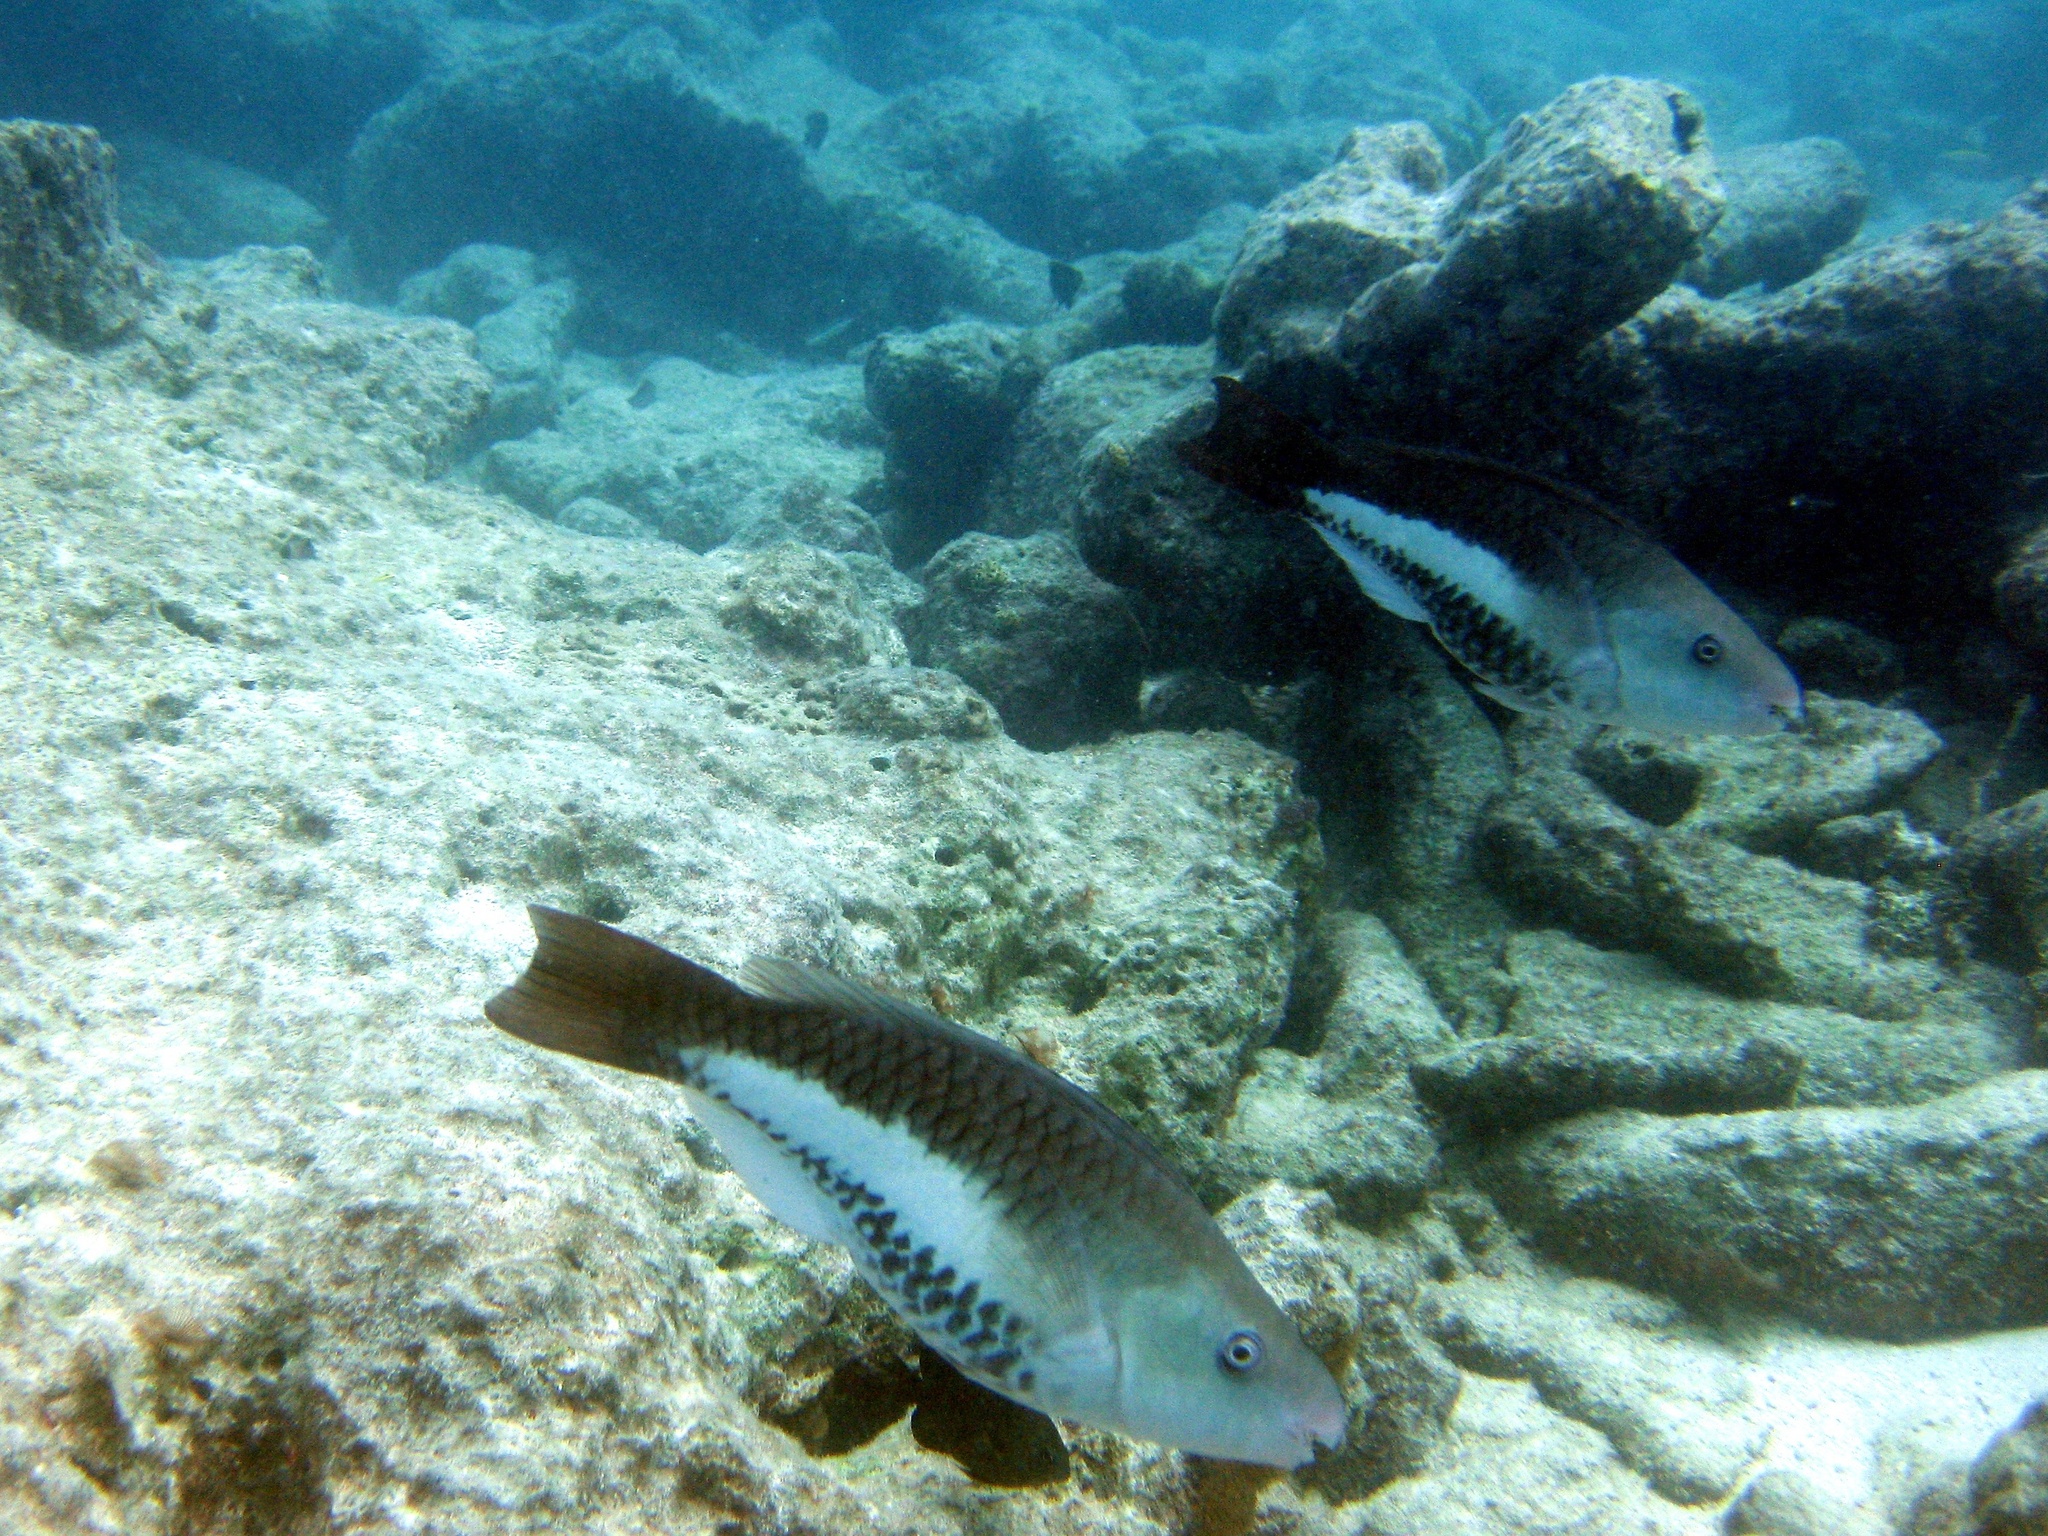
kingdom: Animalia
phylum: Chordata
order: Perciformes
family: Scaridae
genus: Scarus
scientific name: Scarus vetula
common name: Queen parrotfish
